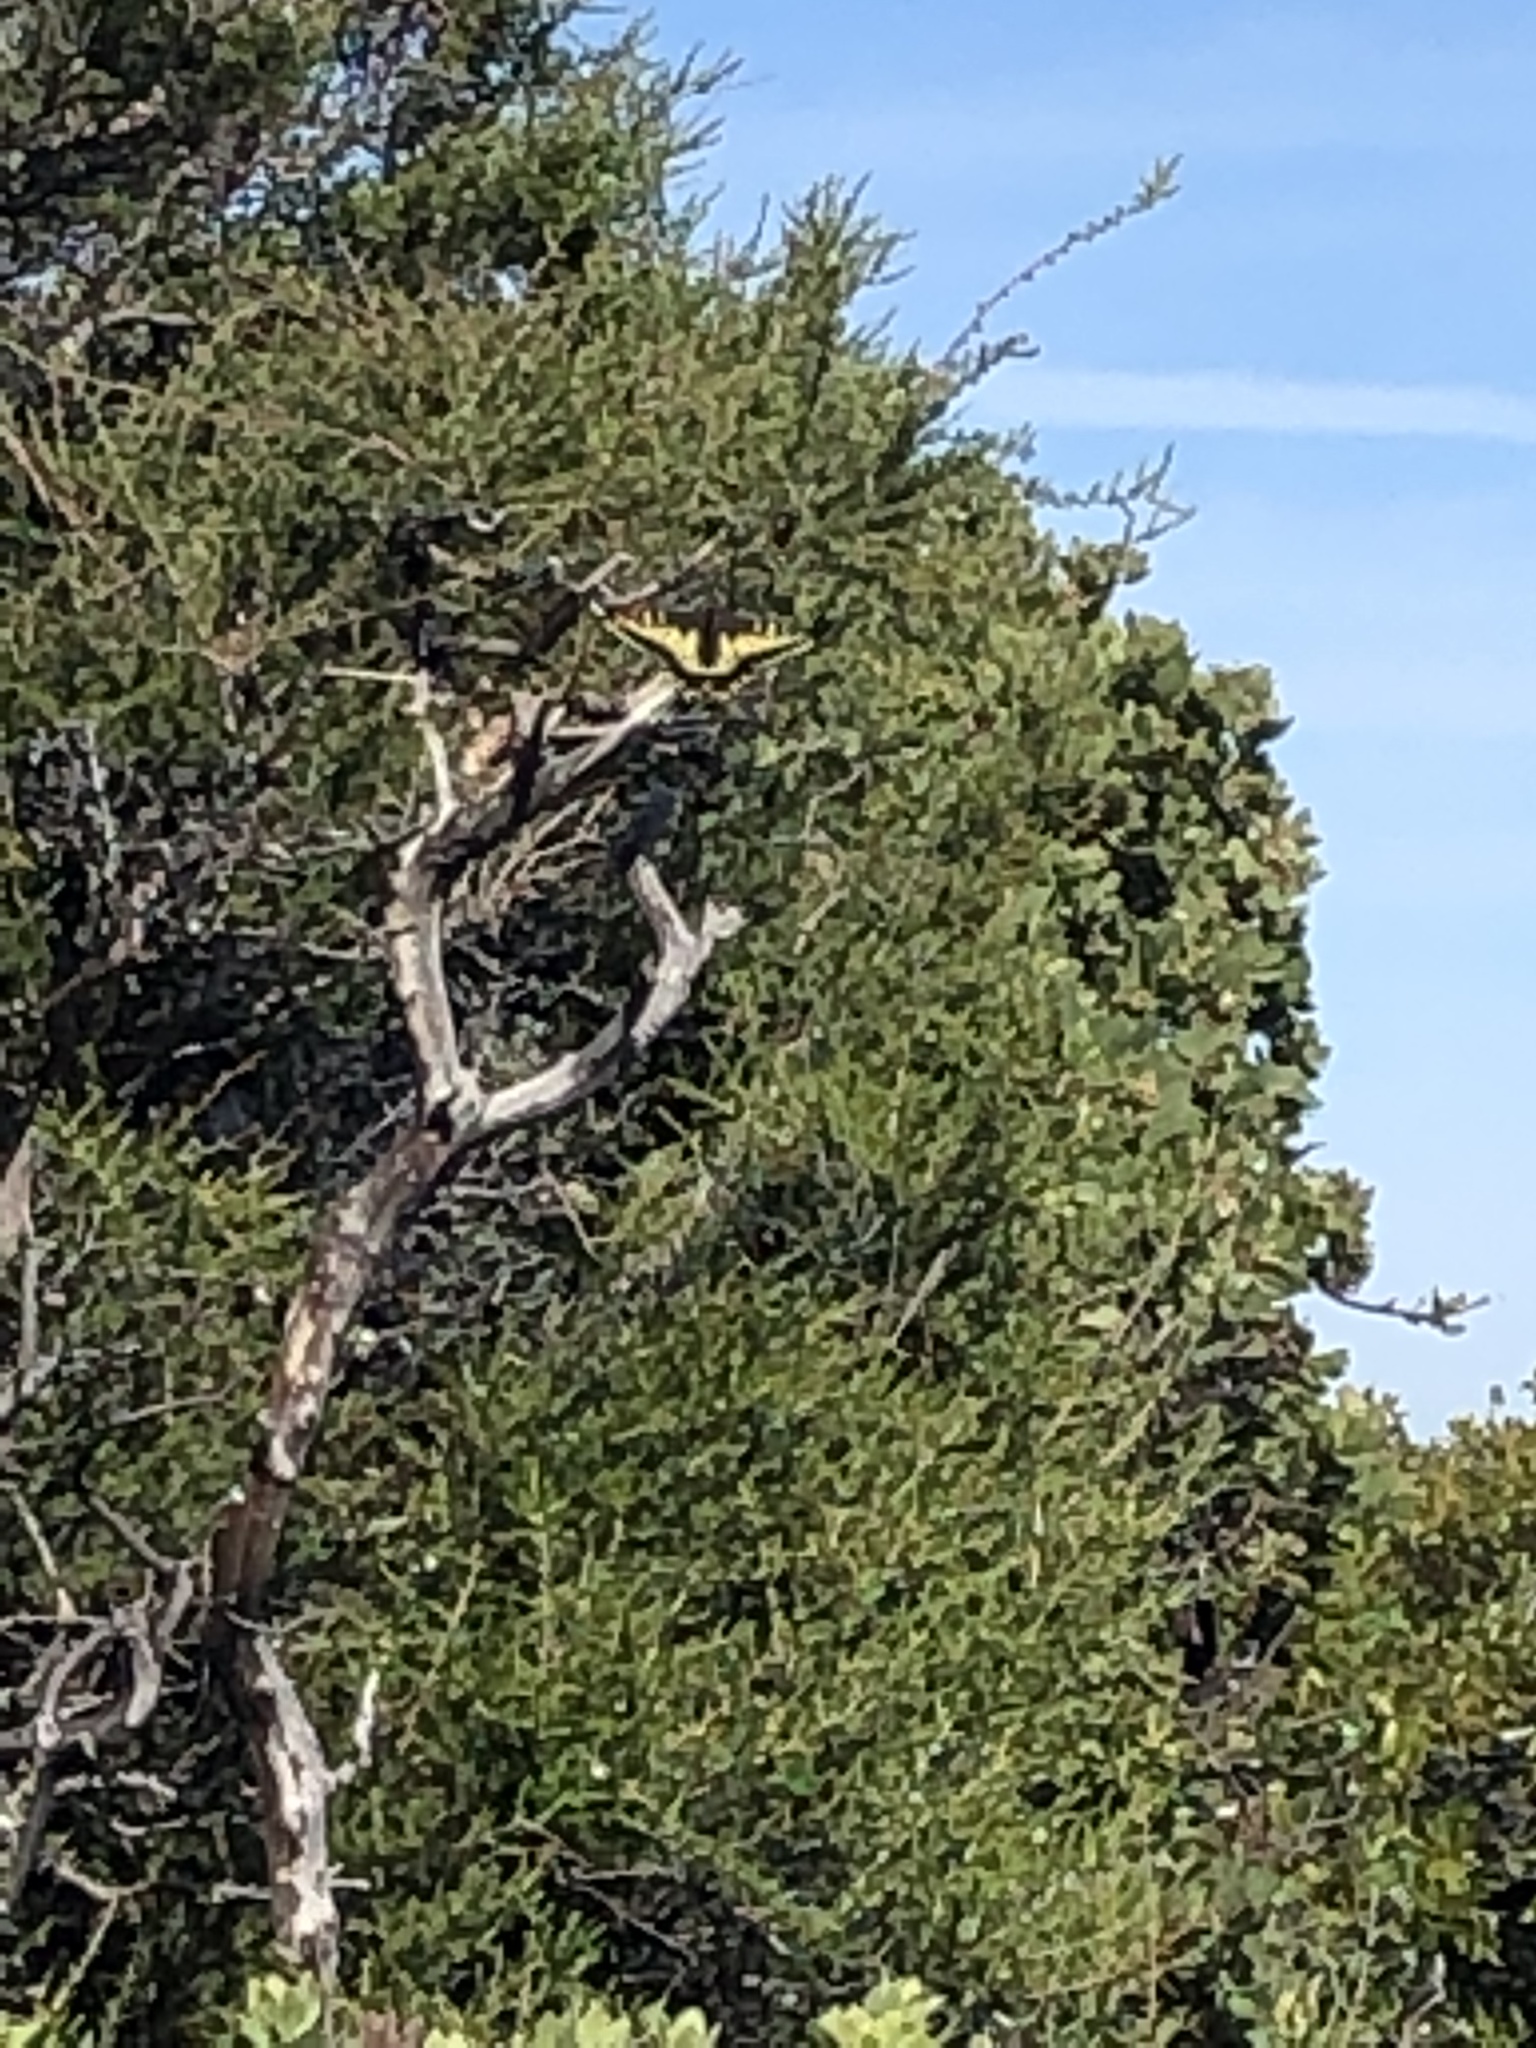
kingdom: Animalia
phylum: Arthropoda
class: Insecta
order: Lepidoptera
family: Papilionidae
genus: Papilio
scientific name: Papilio zelicaon
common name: Anise swallowtail
